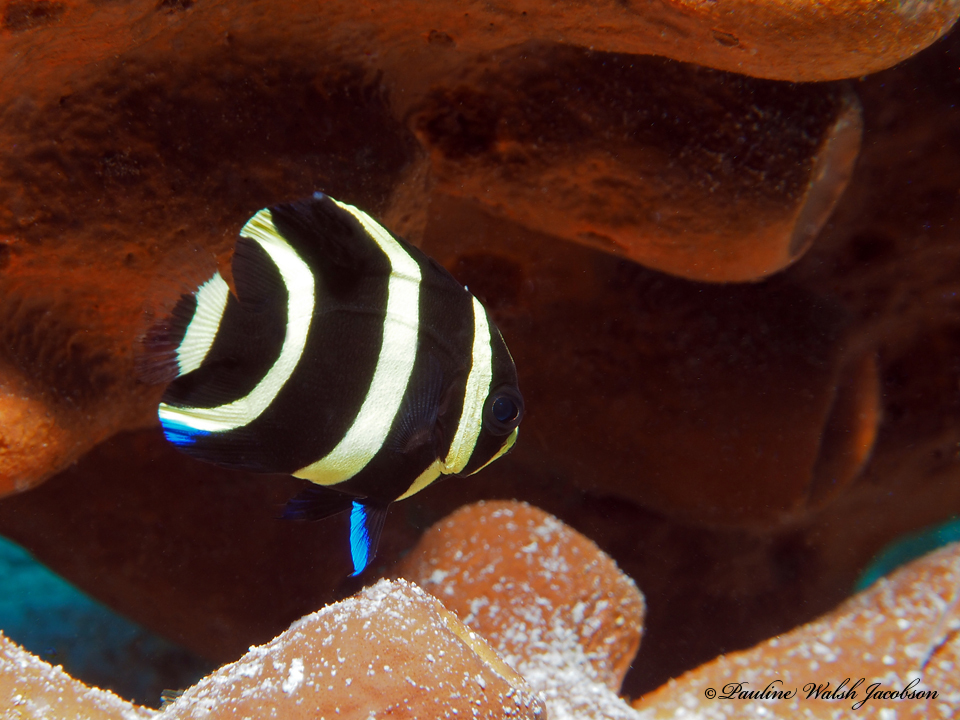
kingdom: Animalia
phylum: Chordata
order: Perciformes
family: Pomacanthidae
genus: Pomacanthus
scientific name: Pomacanthus arcuatus
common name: Gray angelfish
